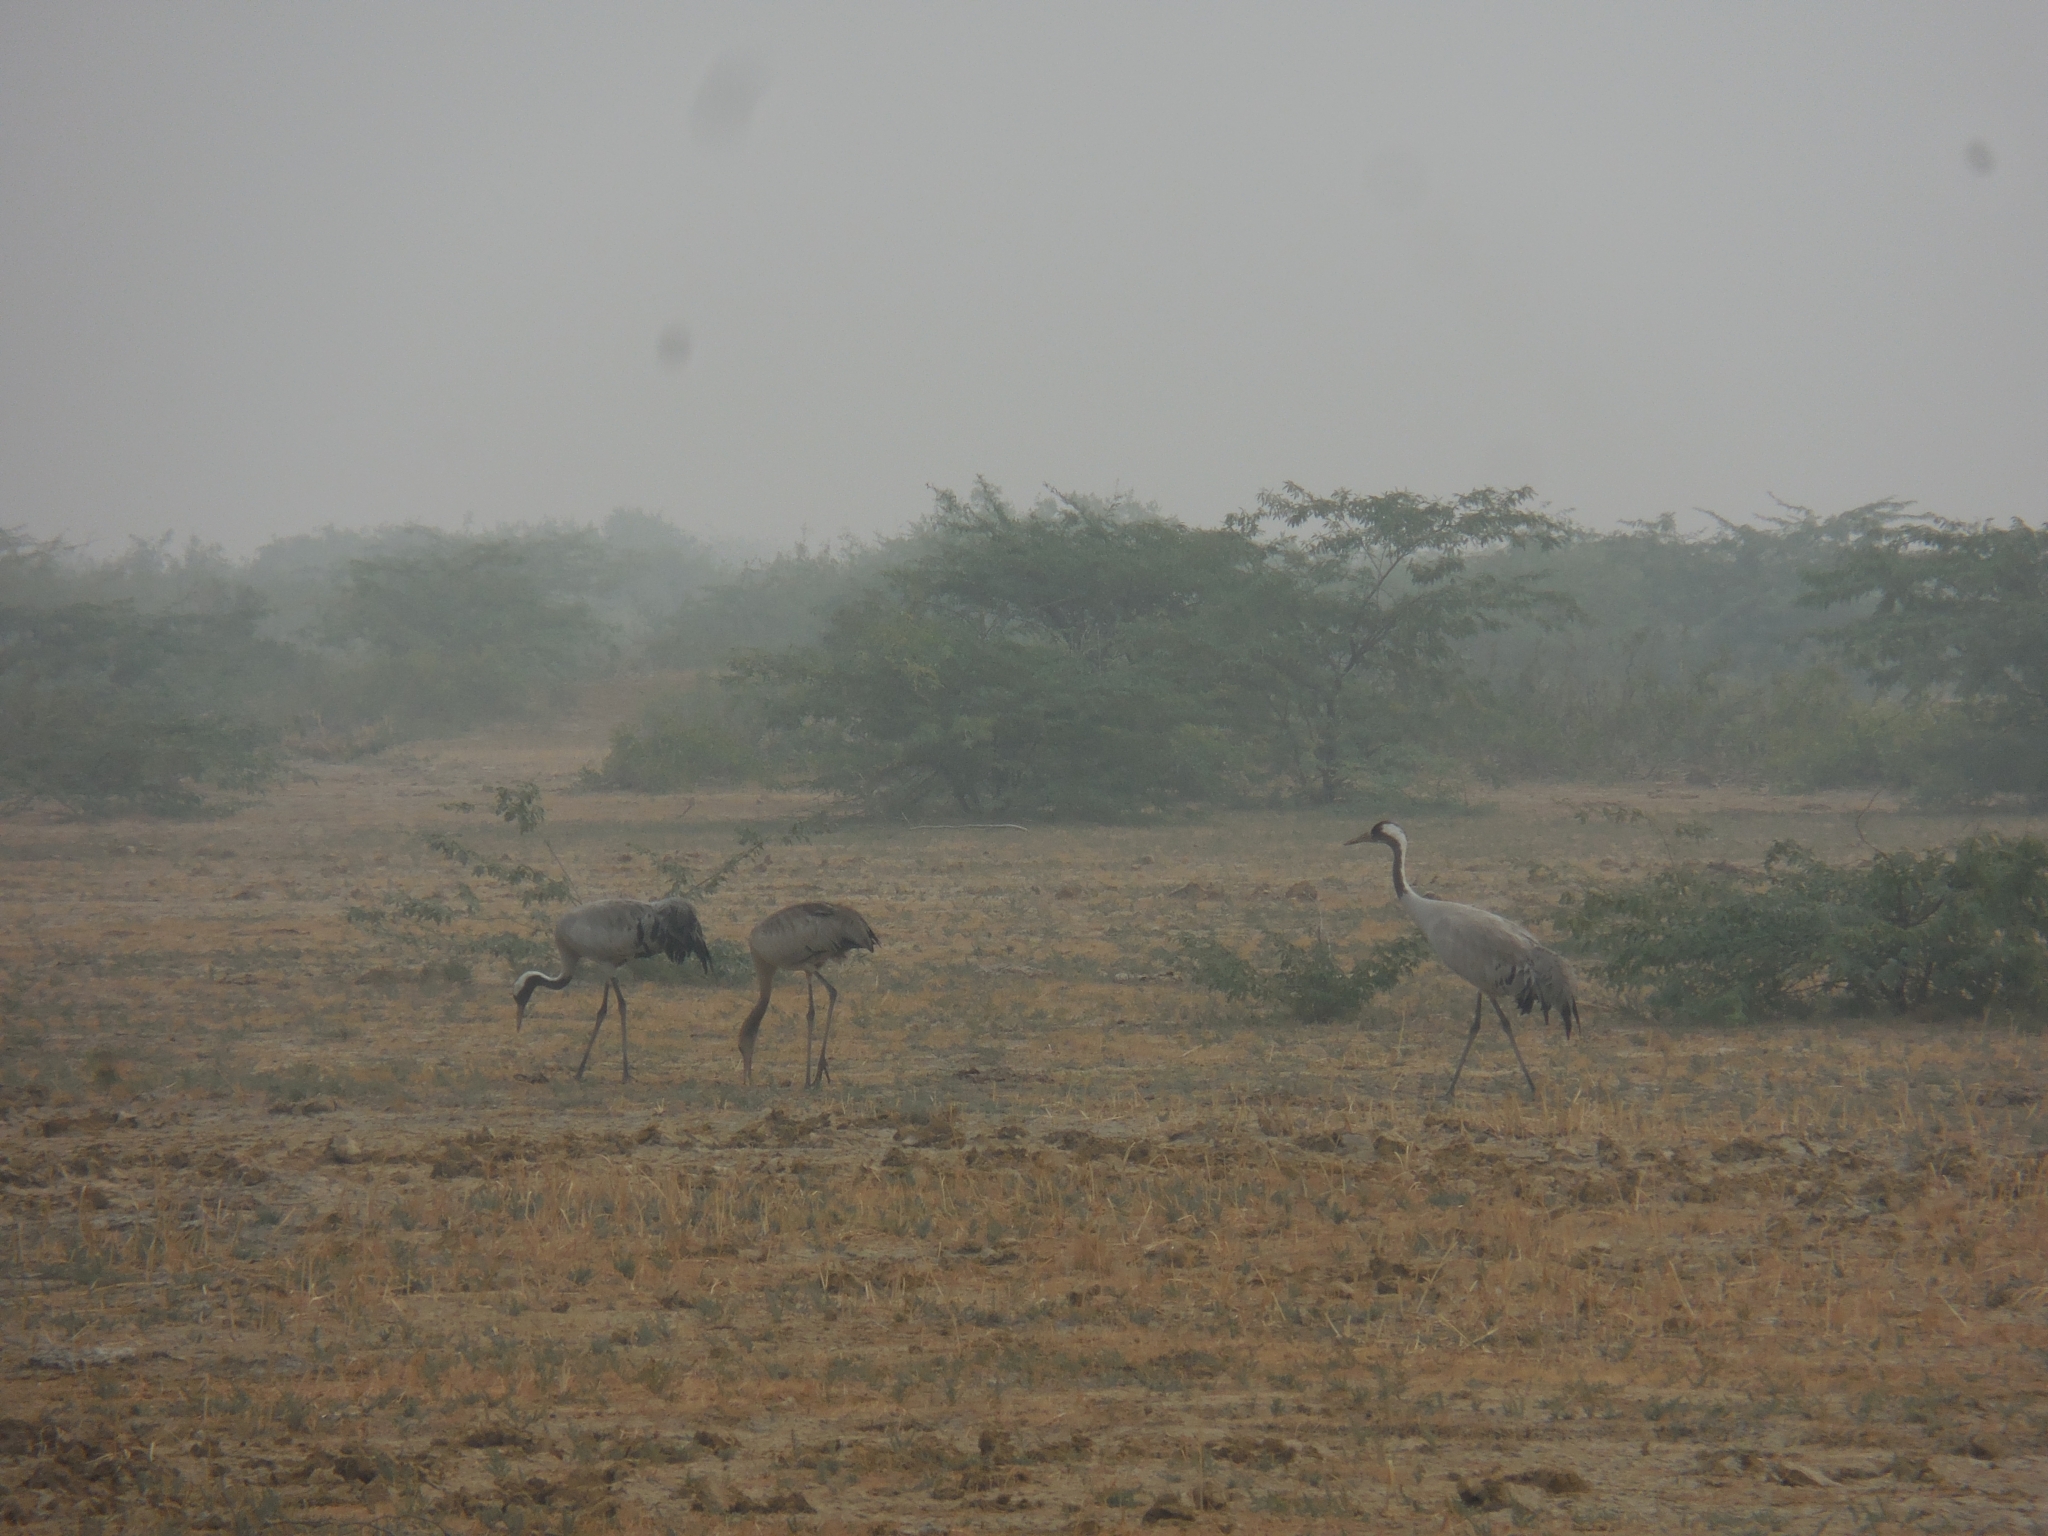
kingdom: Animalia
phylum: Chordata
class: Aves
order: Gruiformes
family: Gruidae
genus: Grus
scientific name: Grus grus
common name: Common crane
